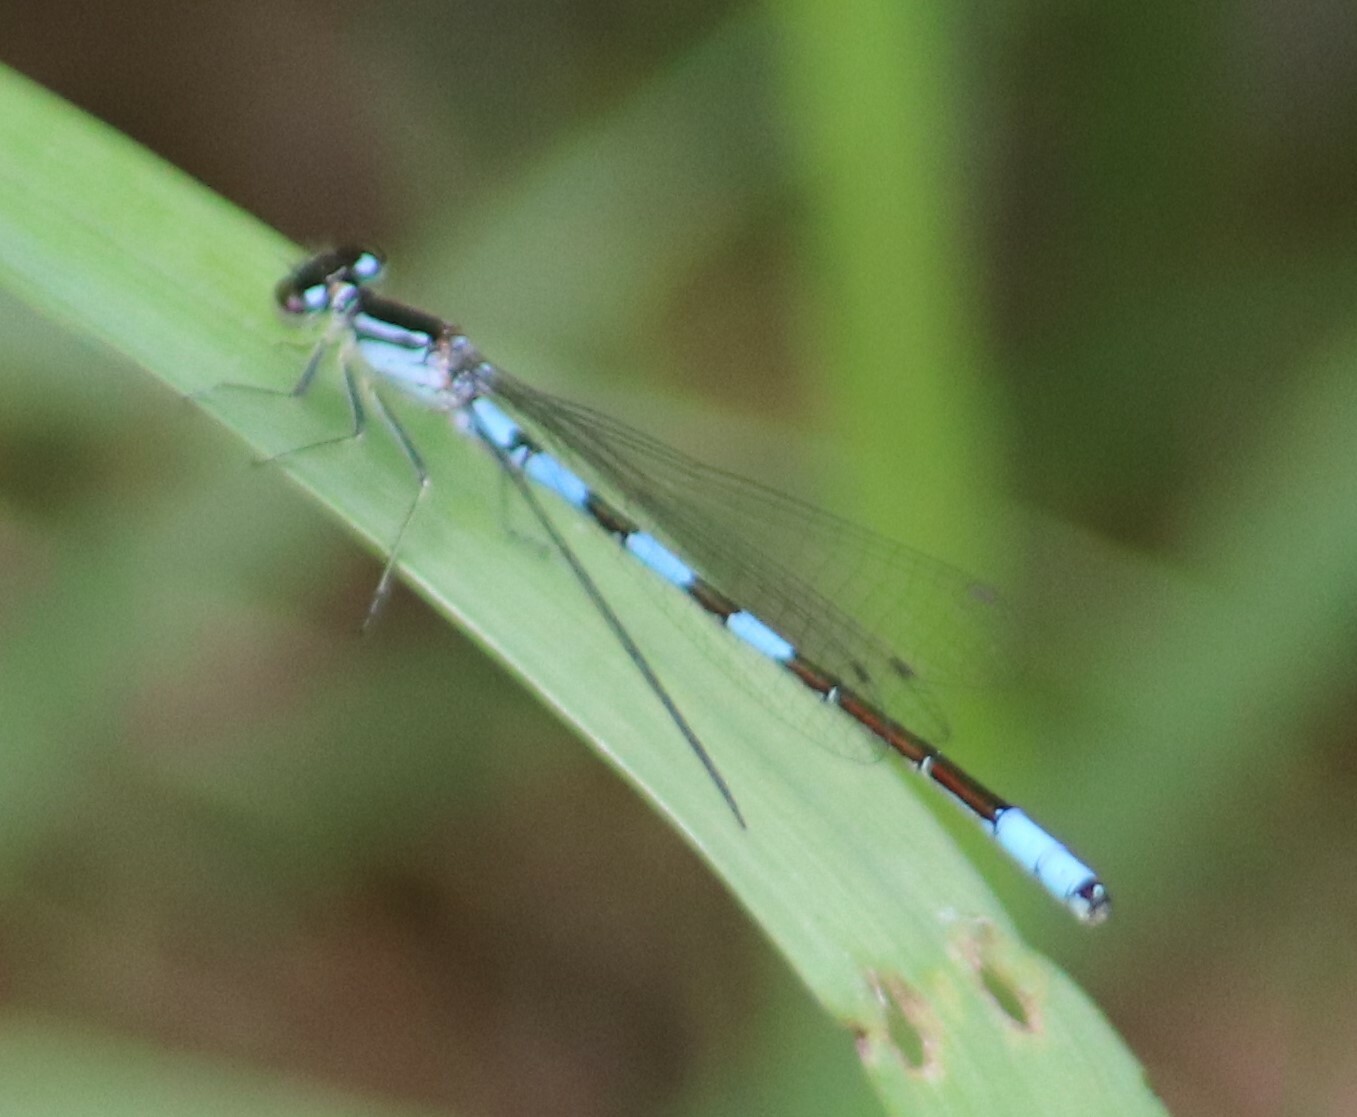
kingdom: Animalia
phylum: Arthropoda
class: Insecta
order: Odonata
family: Coenagrionidae
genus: Coenagrion
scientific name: Coenagrion resolutum
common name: Taiga bluet
